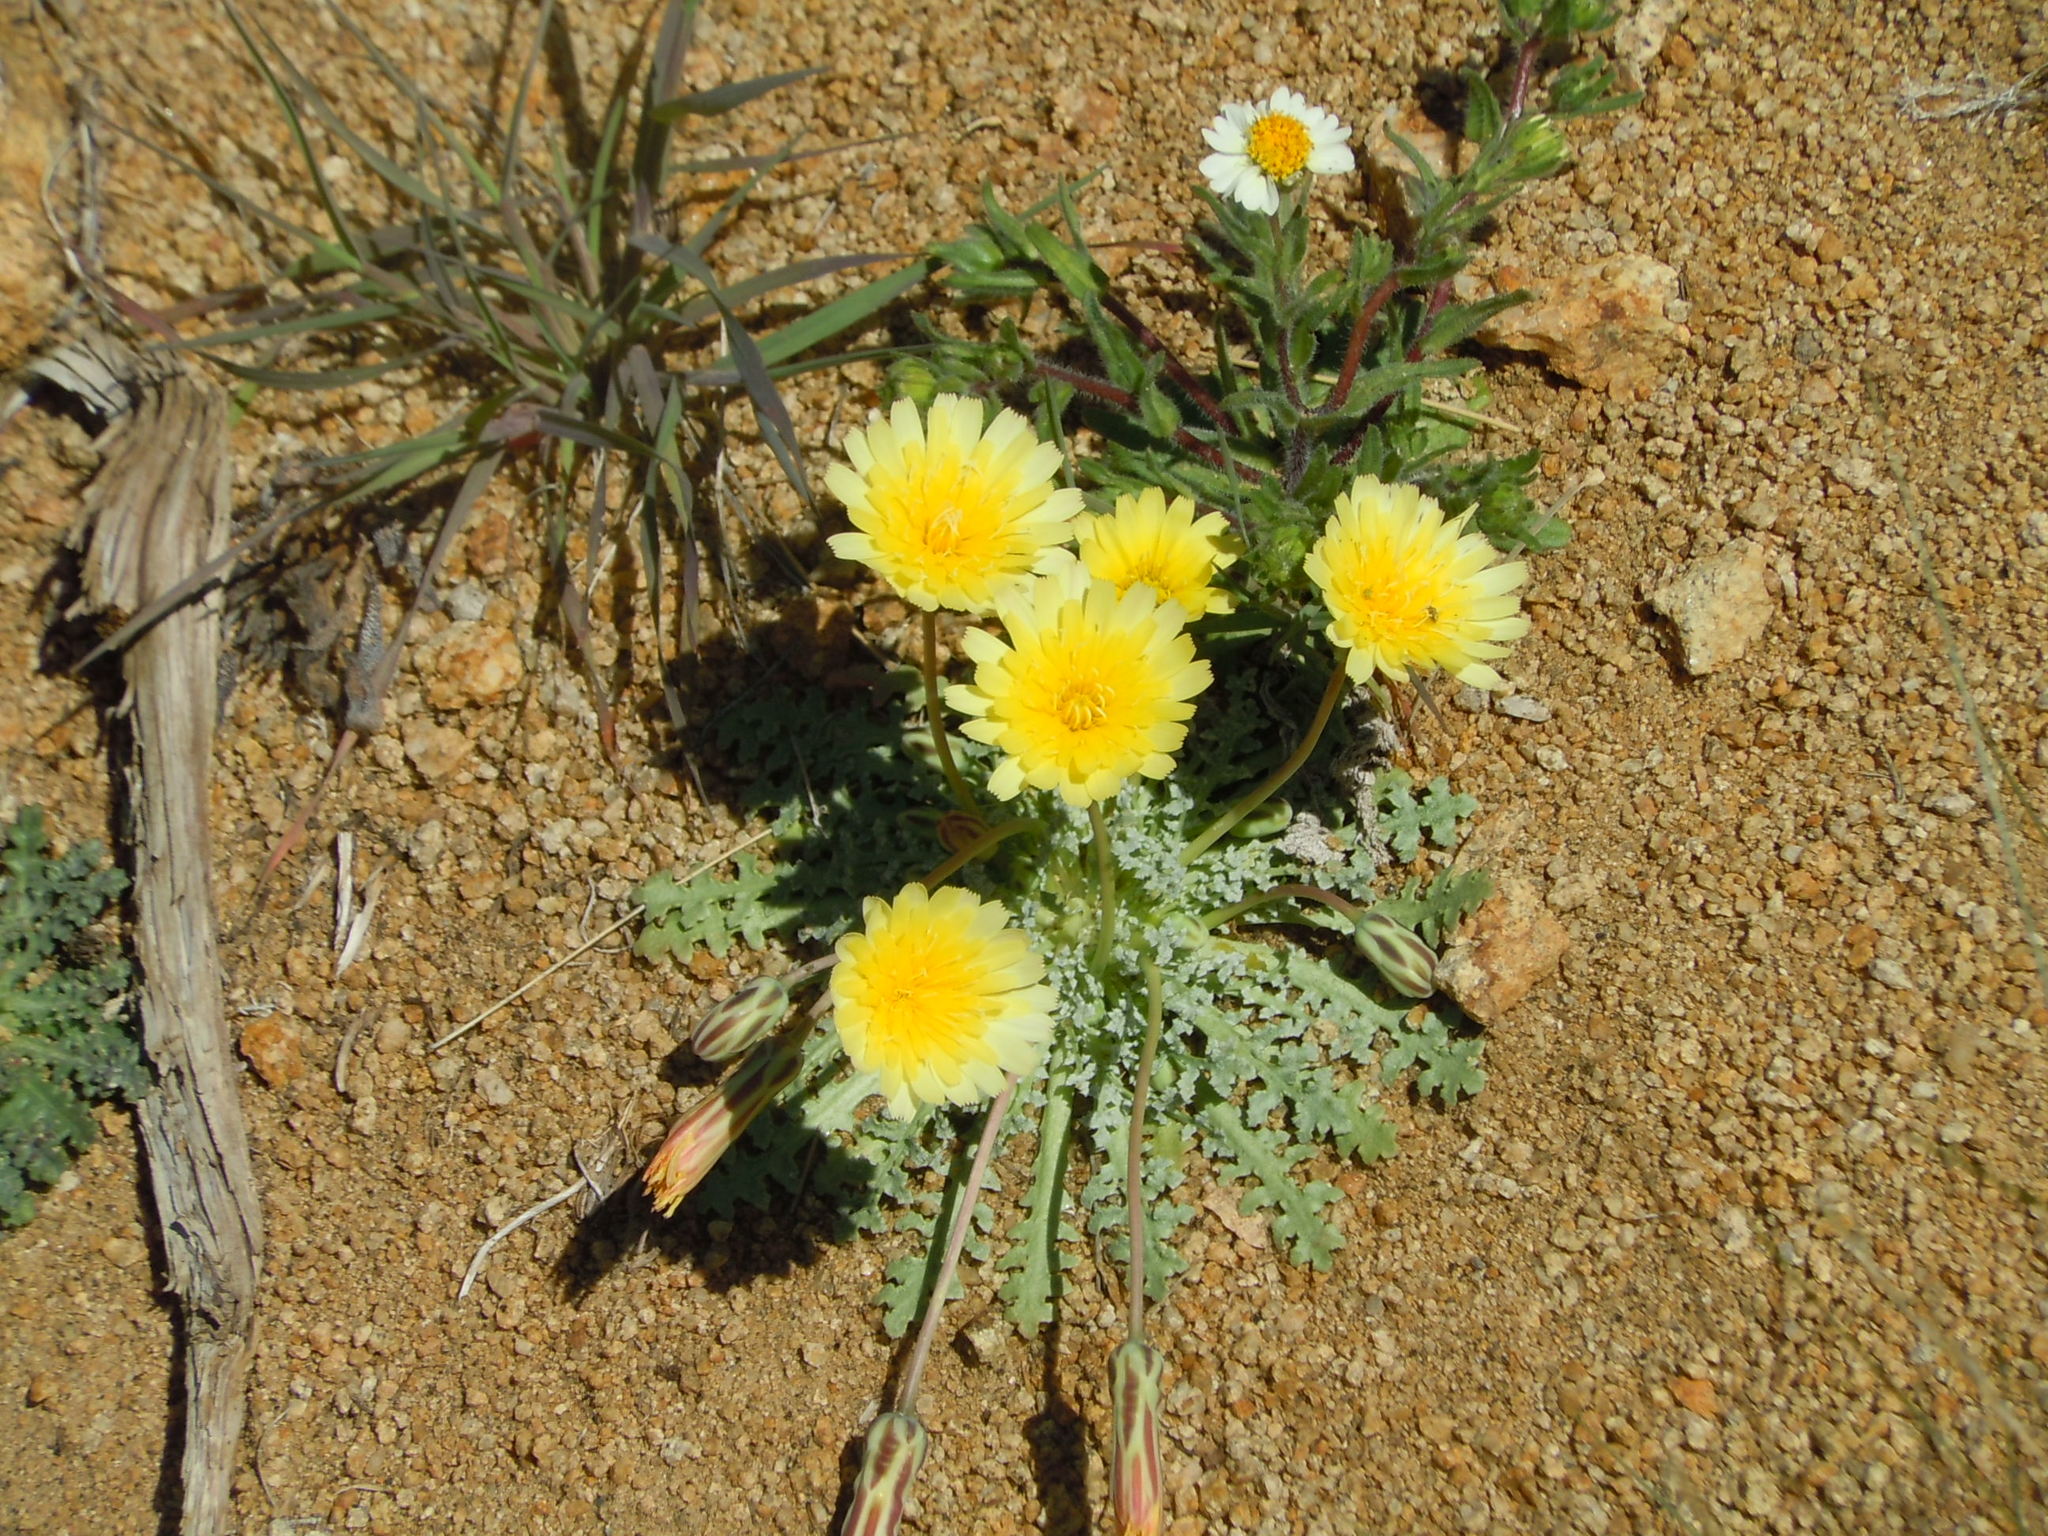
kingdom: Plantae
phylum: Tracheophyta
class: Magnoliopsida
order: Asterales
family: Asteraceae
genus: Anisocoma
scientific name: Anisocoma acaulis
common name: Scalebud
